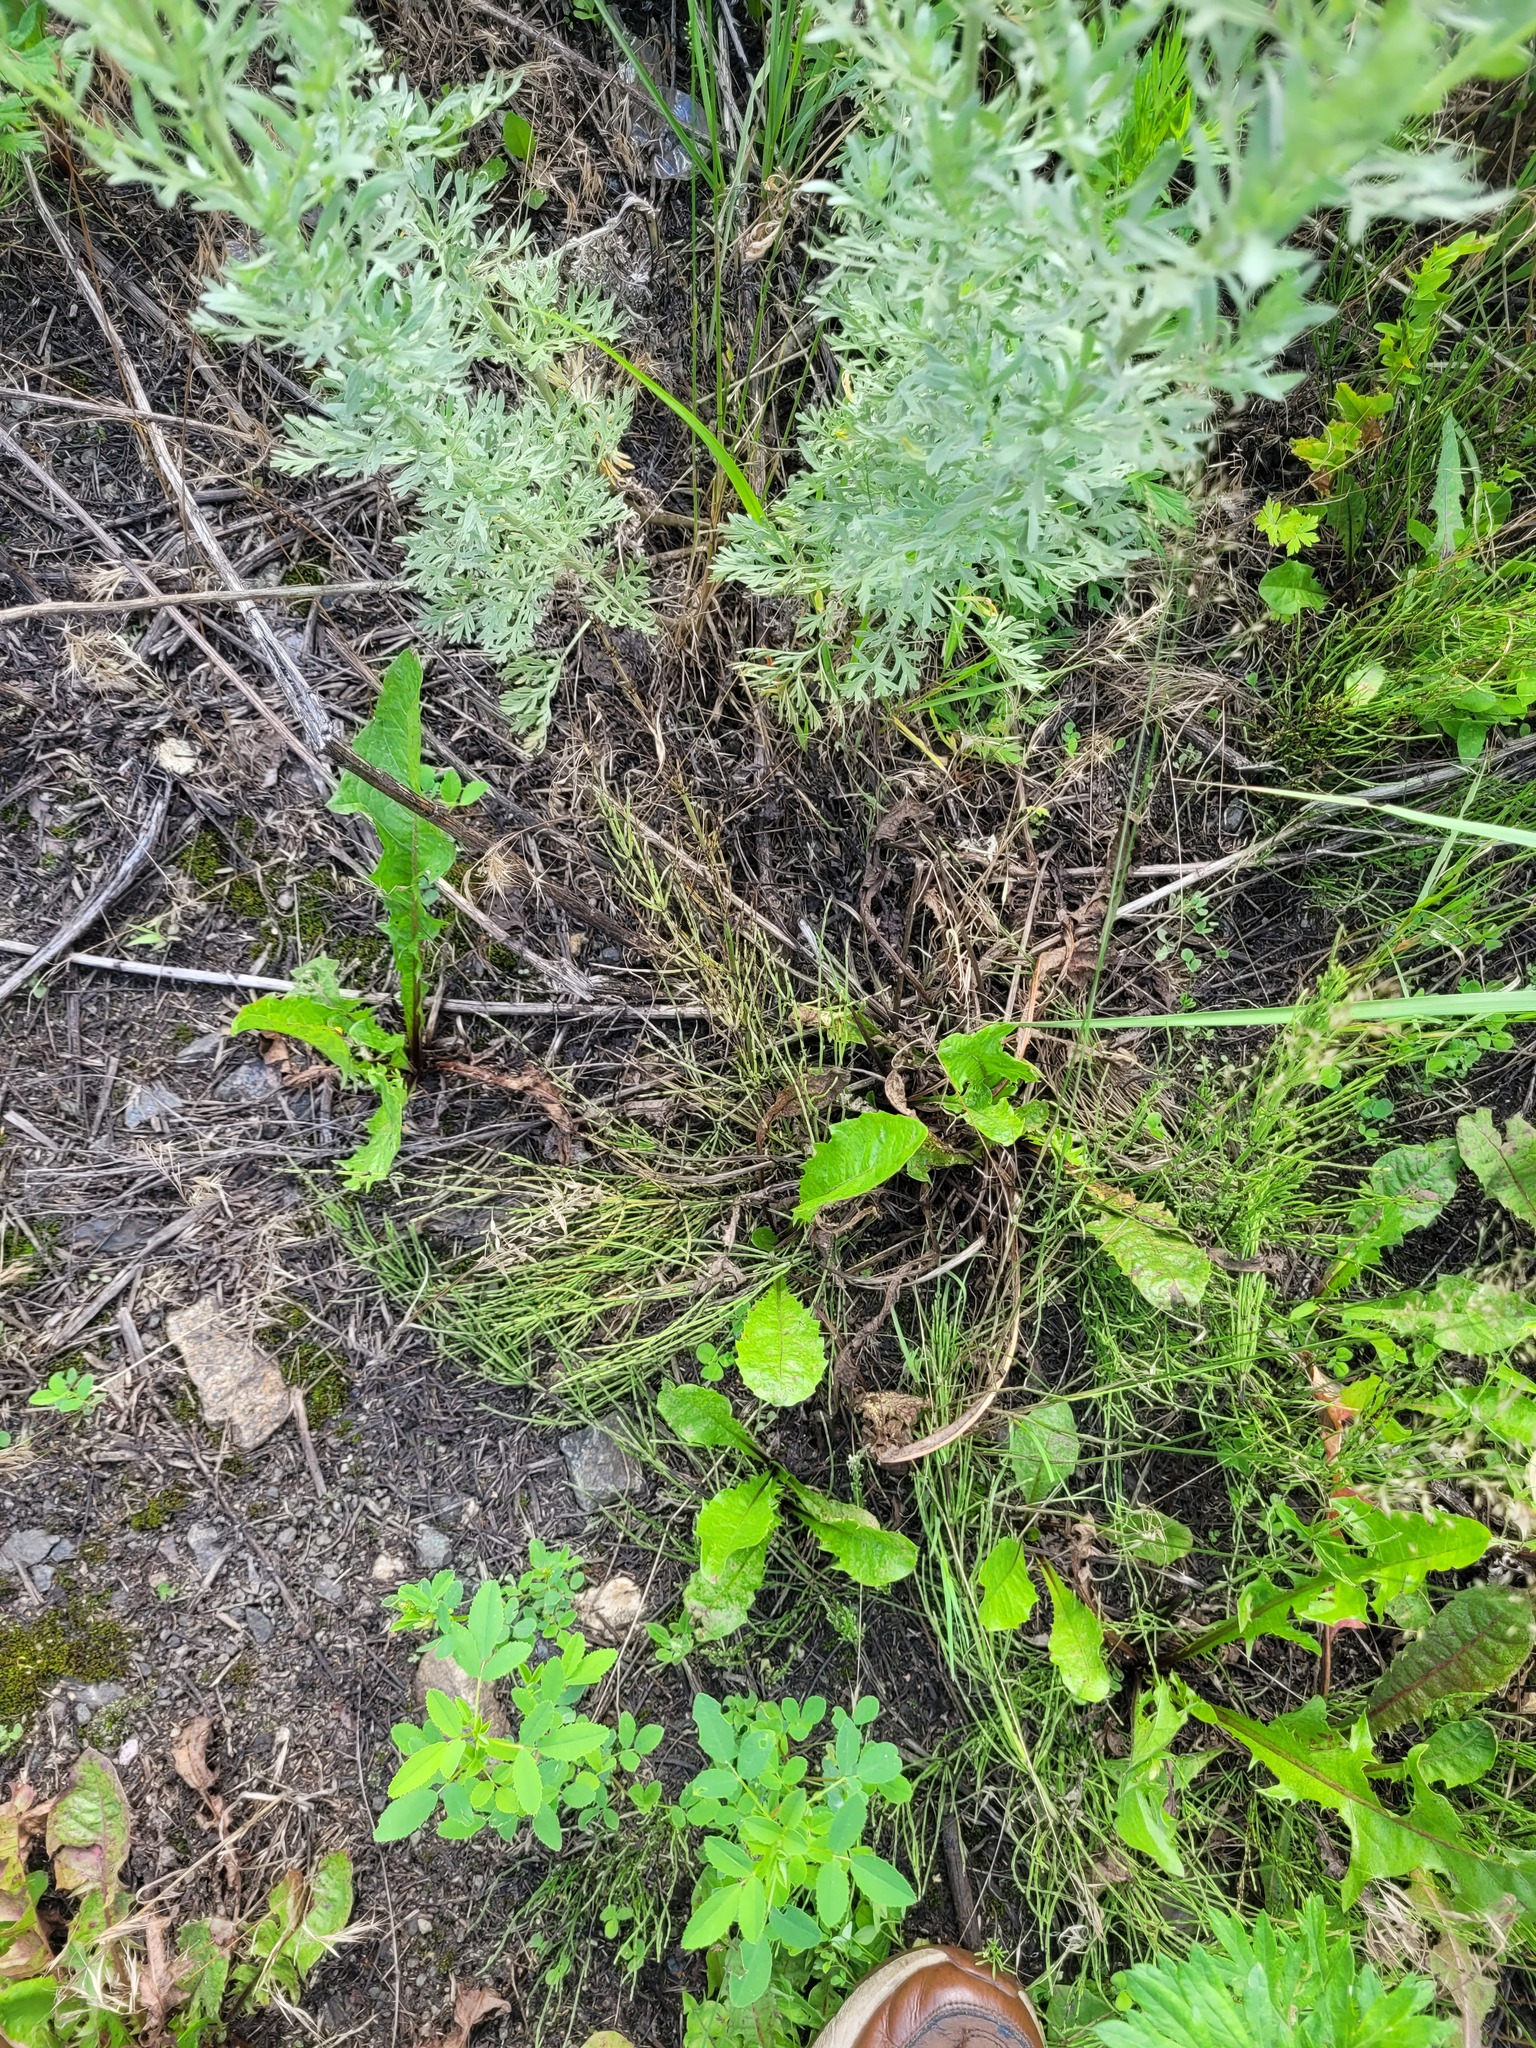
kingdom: Plantae
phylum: Tracheophyta
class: Polypodiopsida
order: Equisetales
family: Equisetaceae
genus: Equisetum
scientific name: Equisetum arvense
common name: Field horsetail
